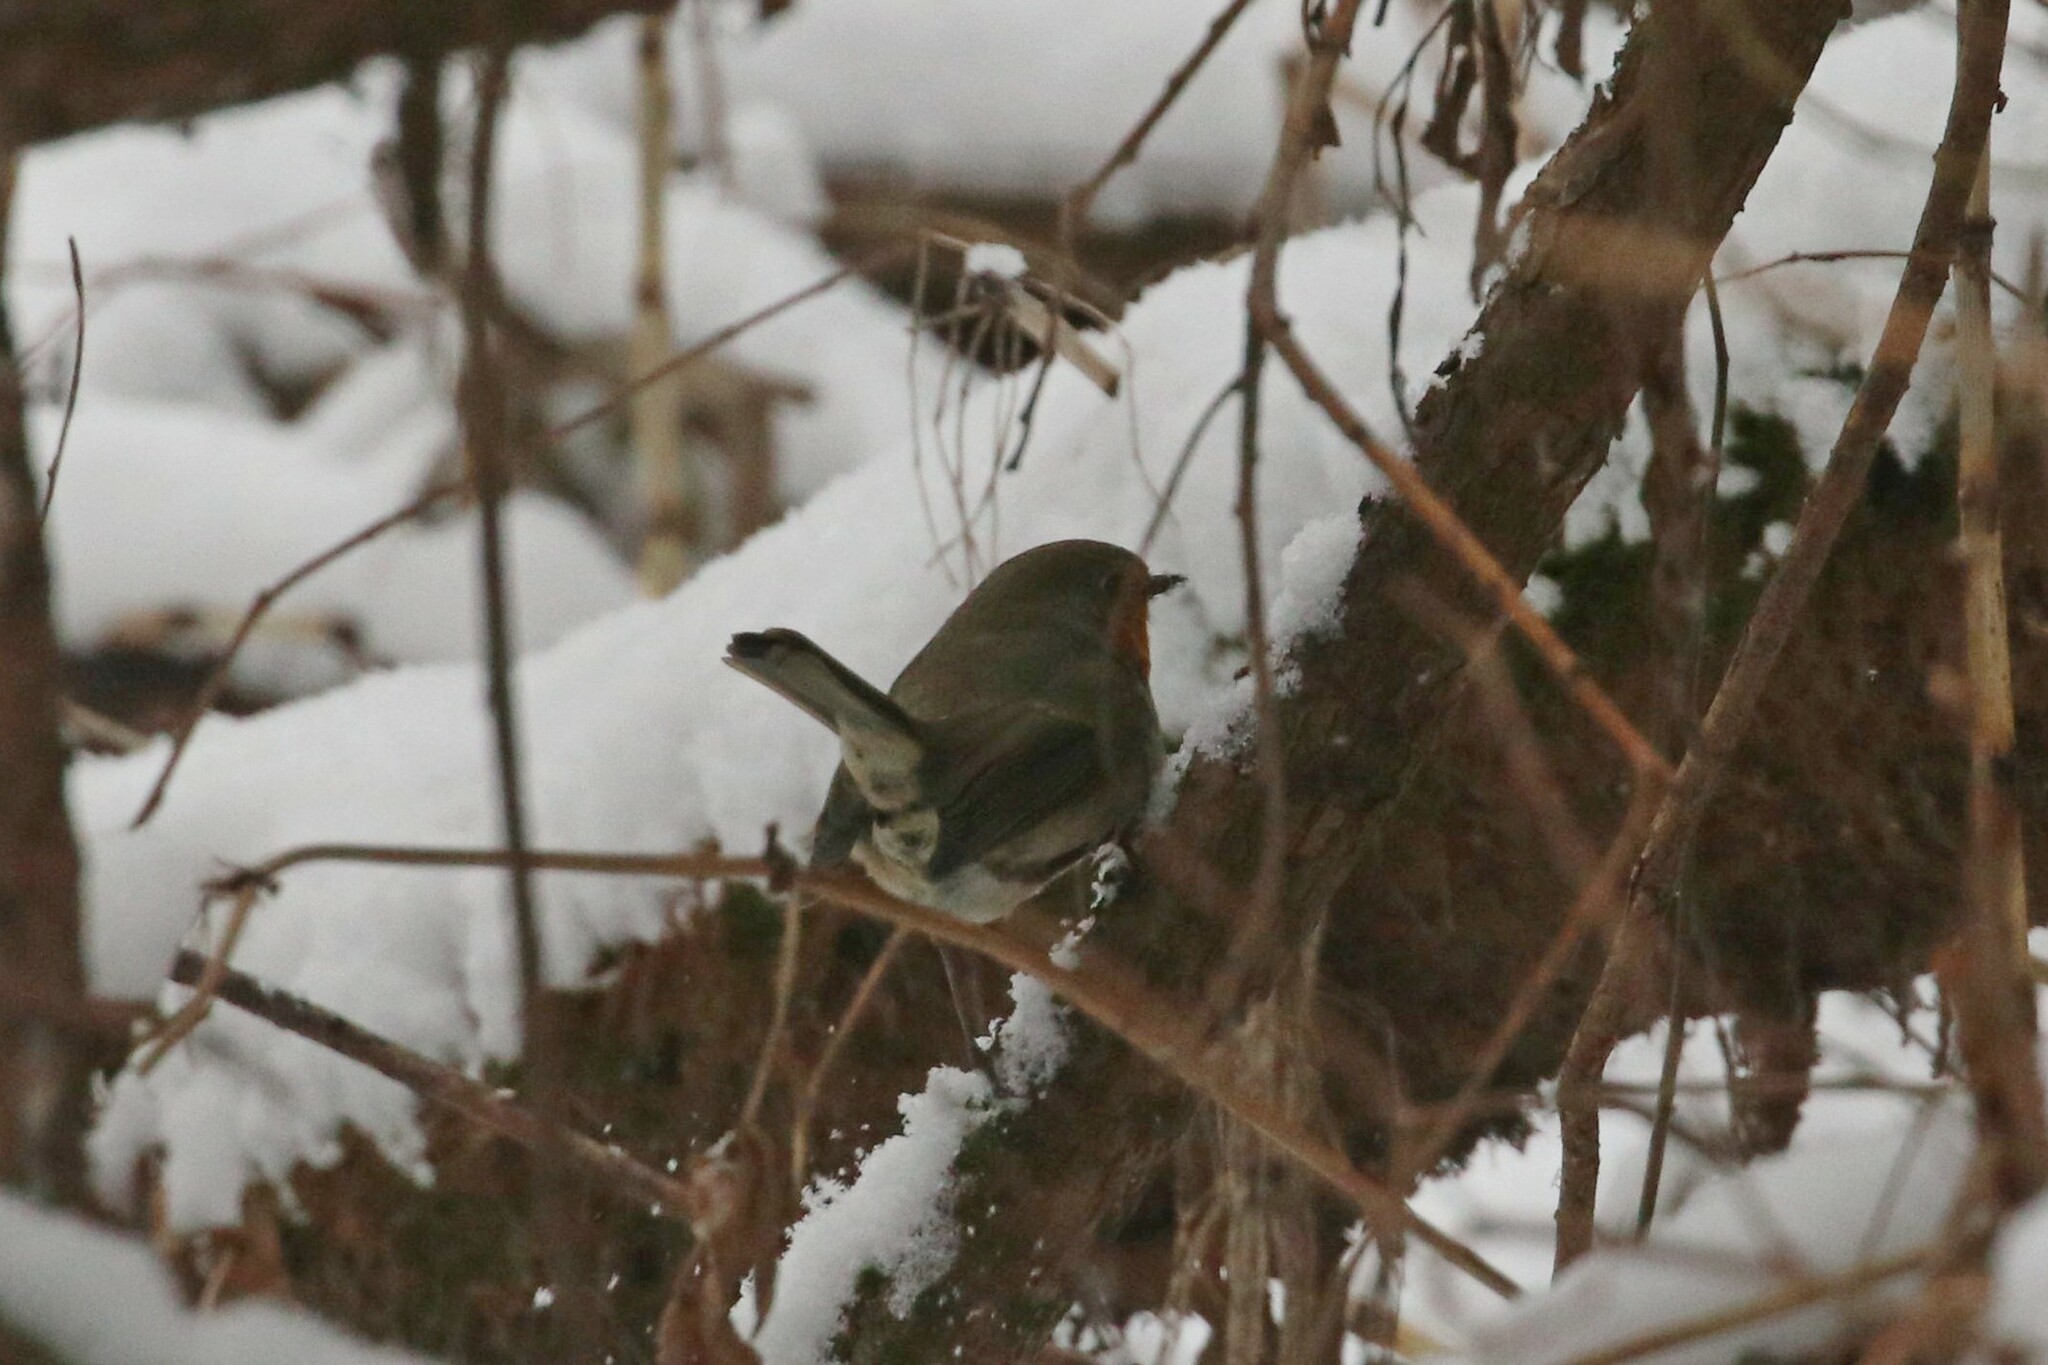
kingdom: Animalia
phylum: Chordata
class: Aves
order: Passeriformes
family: Muscicapidae
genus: Erithacus
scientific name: Erithacus rubecula
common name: European robin
